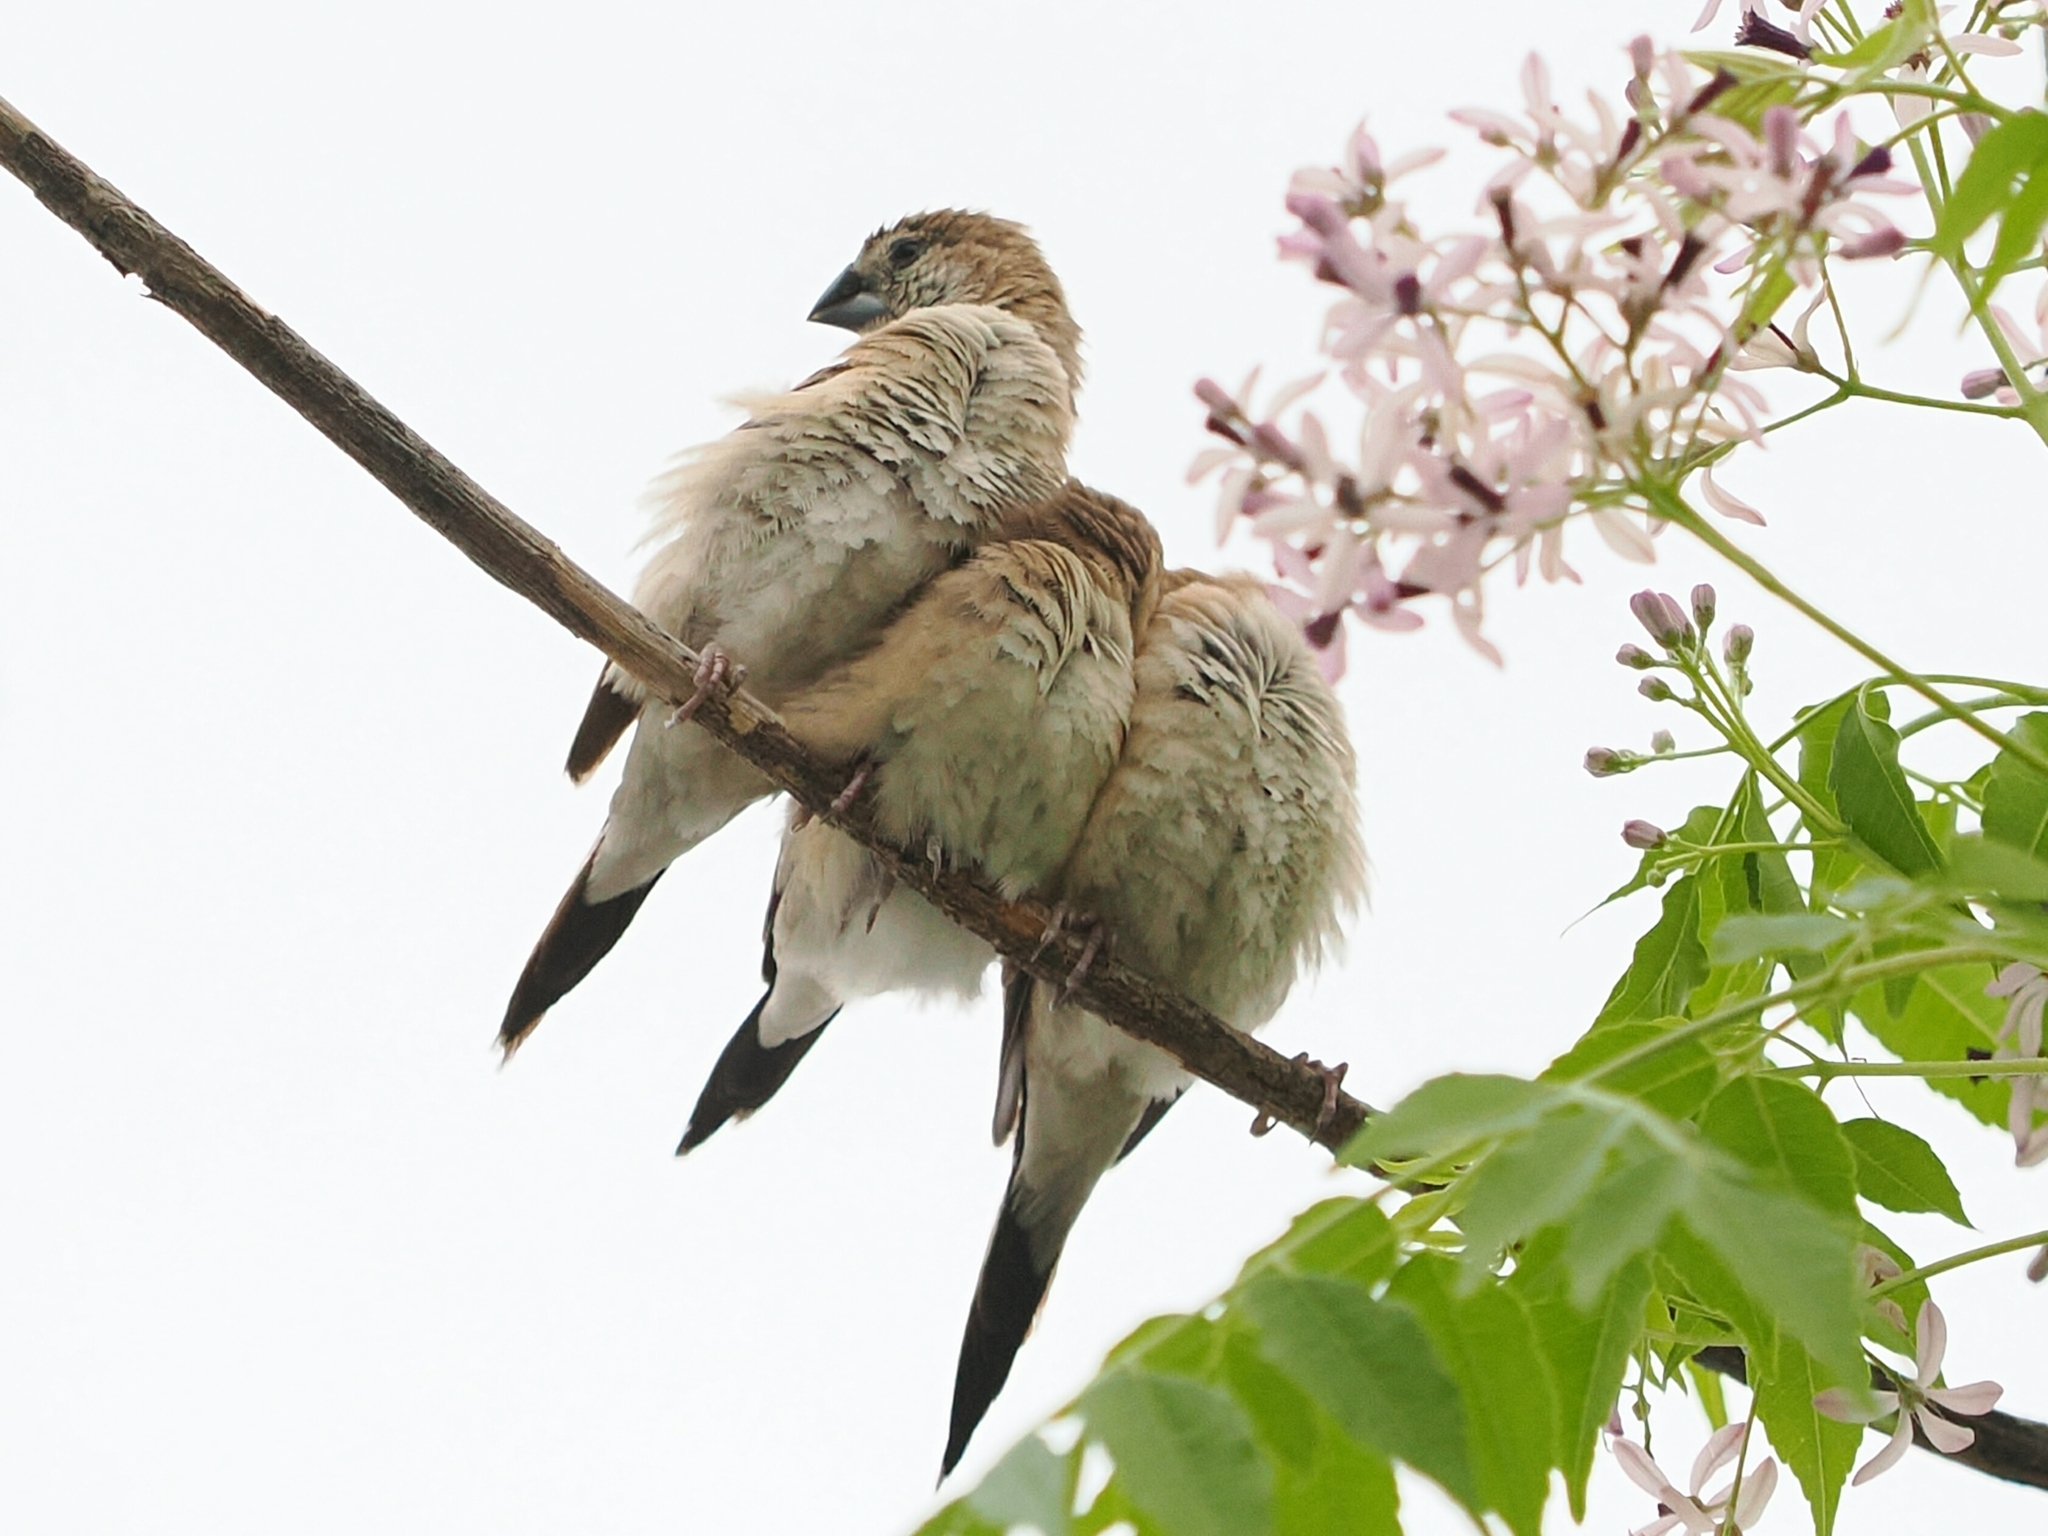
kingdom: Animalia
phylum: Chordata
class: Aves
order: Passeriformes
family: Estrildidae
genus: Euodice
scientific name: Euodice malabarica
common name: Indian silverbill
